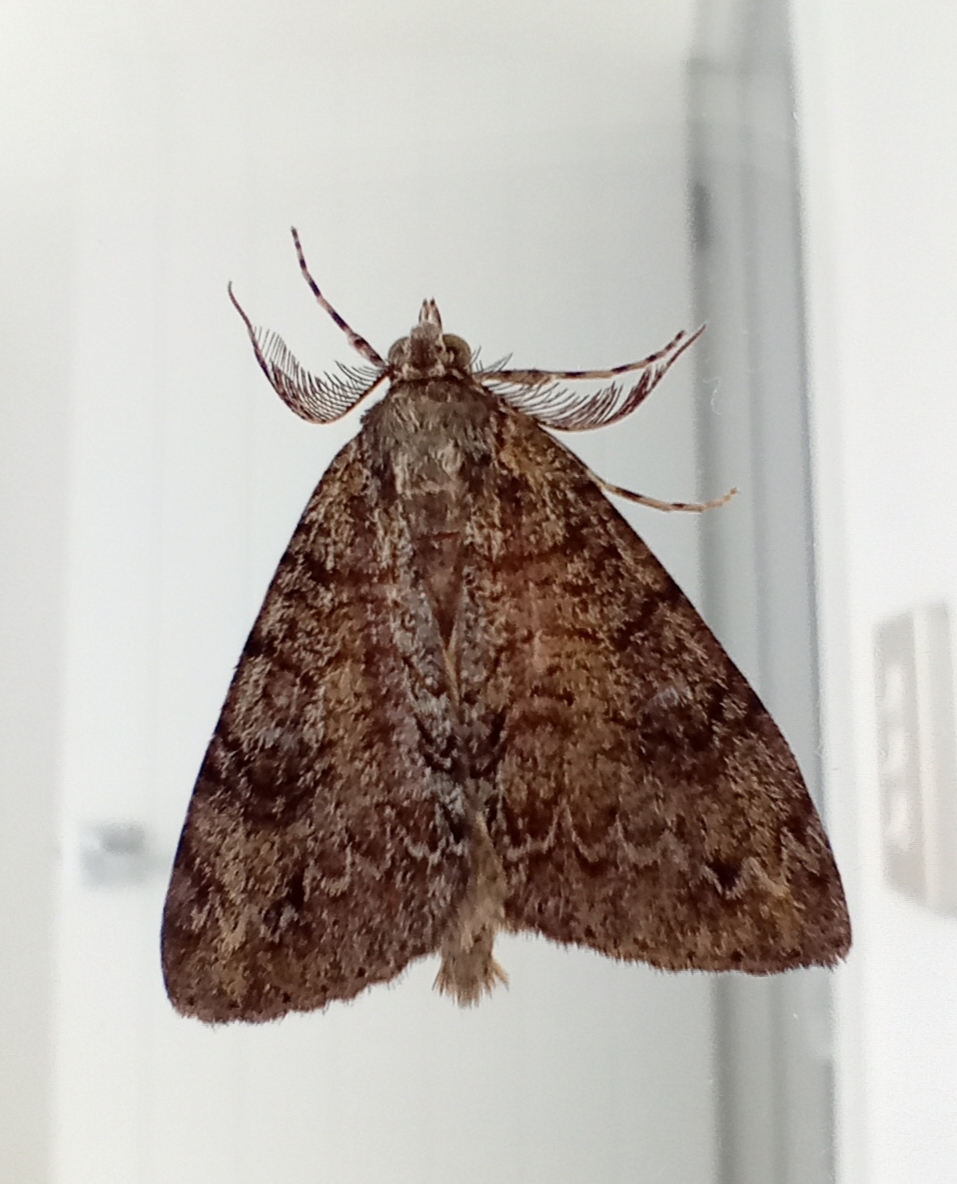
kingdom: Animalia
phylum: Arthropoda
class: Insecta
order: Lepidoptera
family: Geometridae
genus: Pseudocoremia
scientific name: Pseudocoremia suavis
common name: Common forest looper
